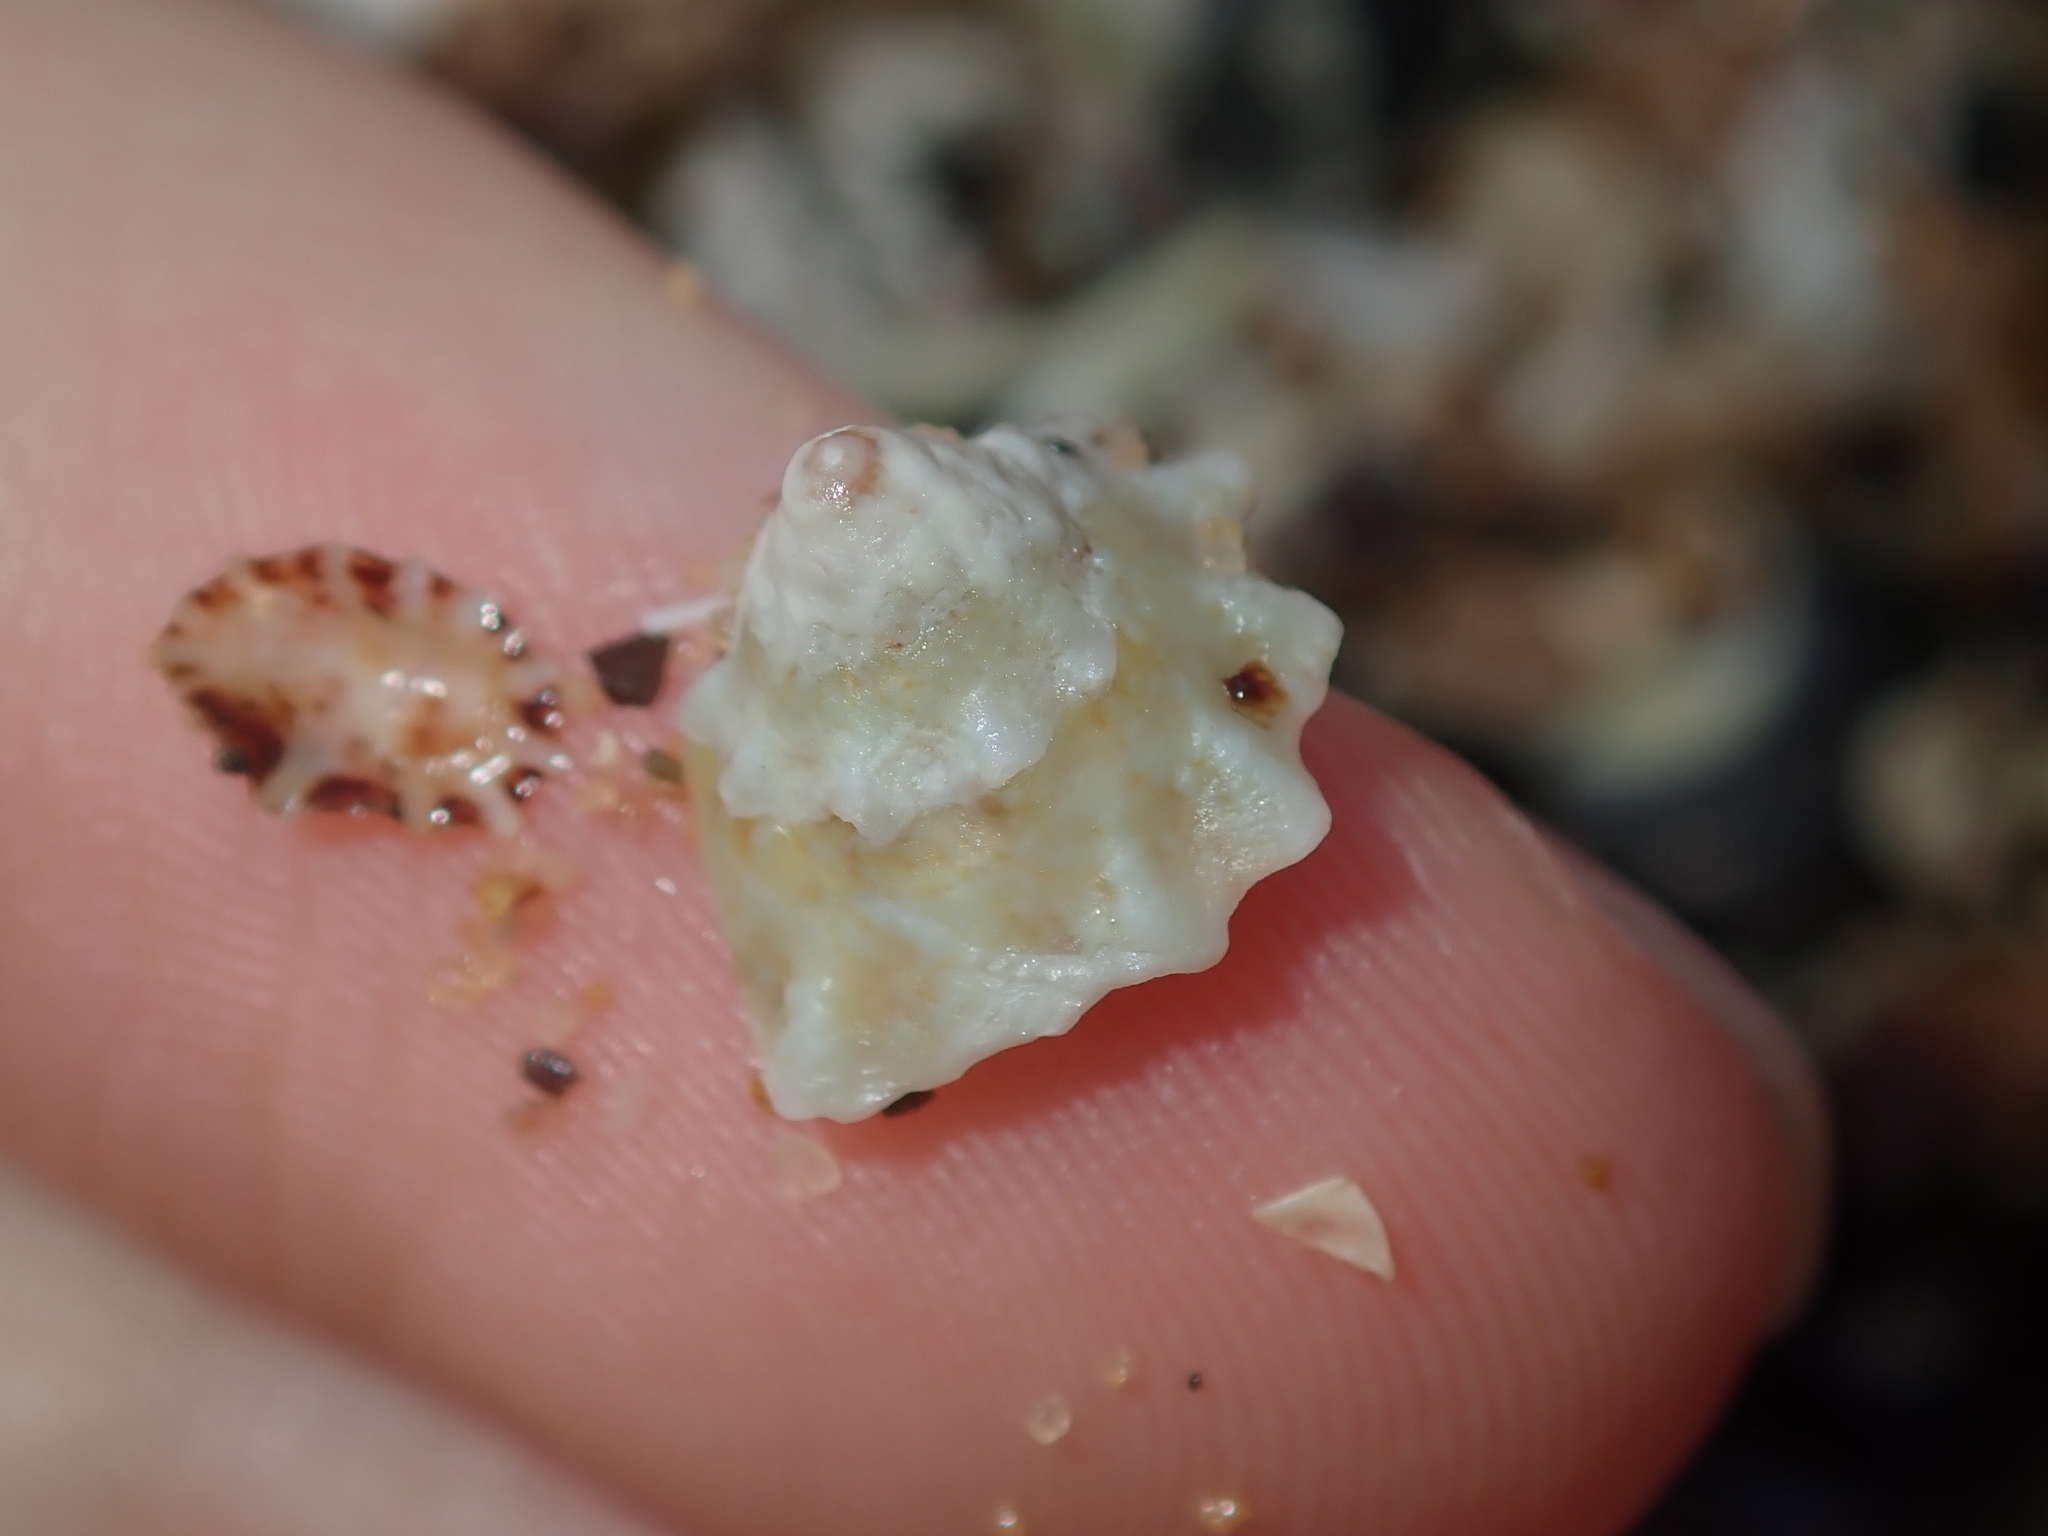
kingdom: Animalia
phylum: Mollusca
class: Gastropoda
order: Trochida
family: Turbinidae
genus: Bellastraea
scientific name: Bellastraea squamifera
